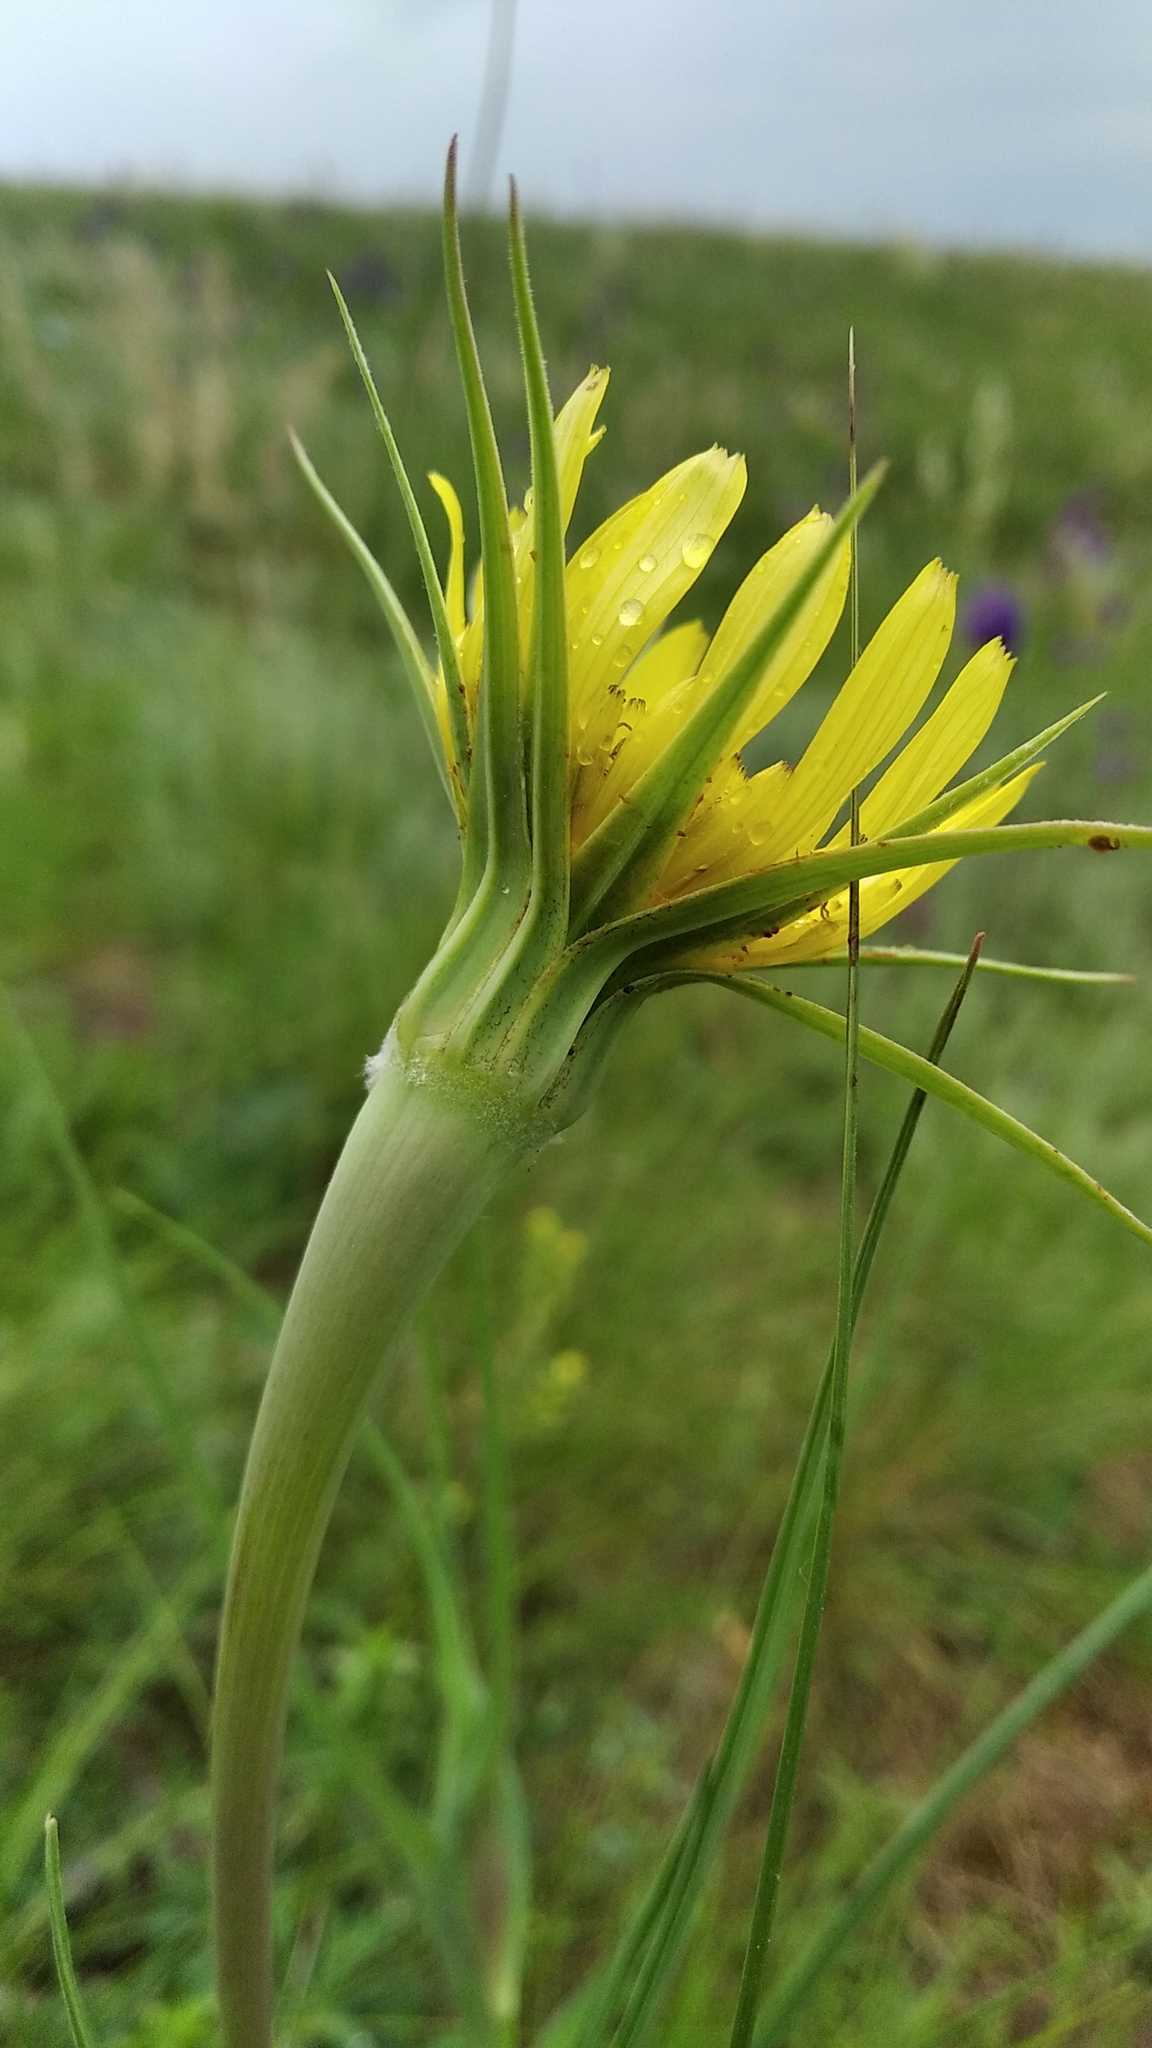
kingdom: Plantae
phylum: Tracheophyta
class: Magnoliopsida
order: Asterales
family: Asteraceae
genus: Tragopogon
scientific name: Tragopogon dubius
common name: Yellow salsify
